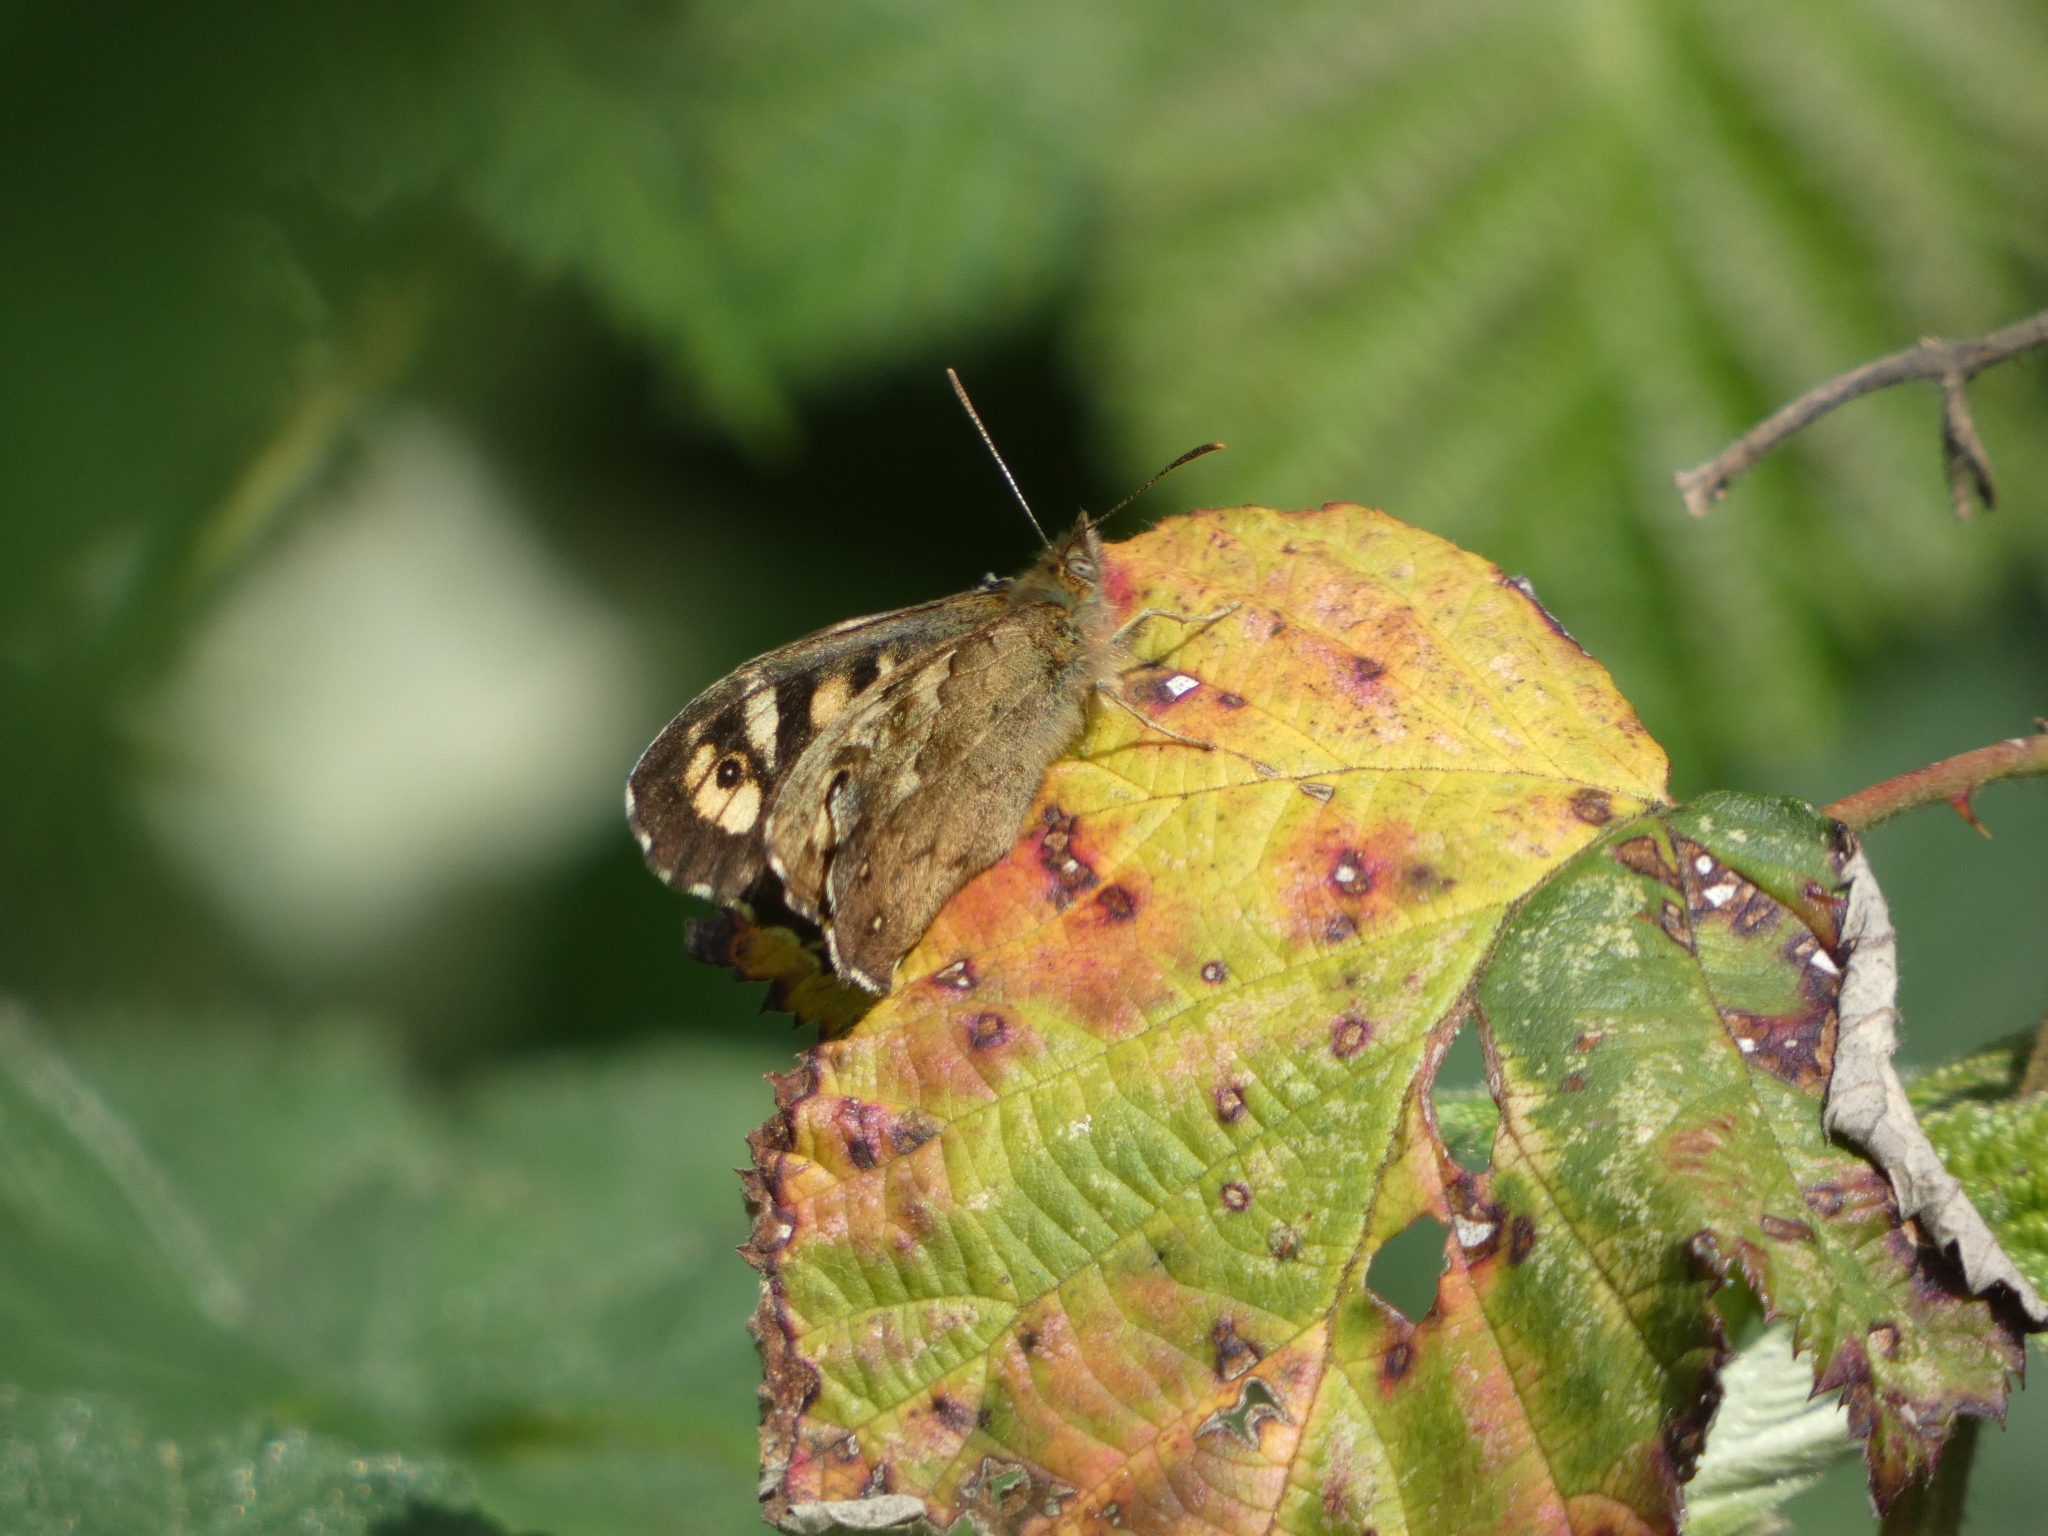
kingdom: Animalia
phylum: Arthropoda
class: Insecta
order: Lepidoptera
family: Nymphalidae
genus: Pararge
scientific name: Pararge aegeria
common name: Speckled wood
